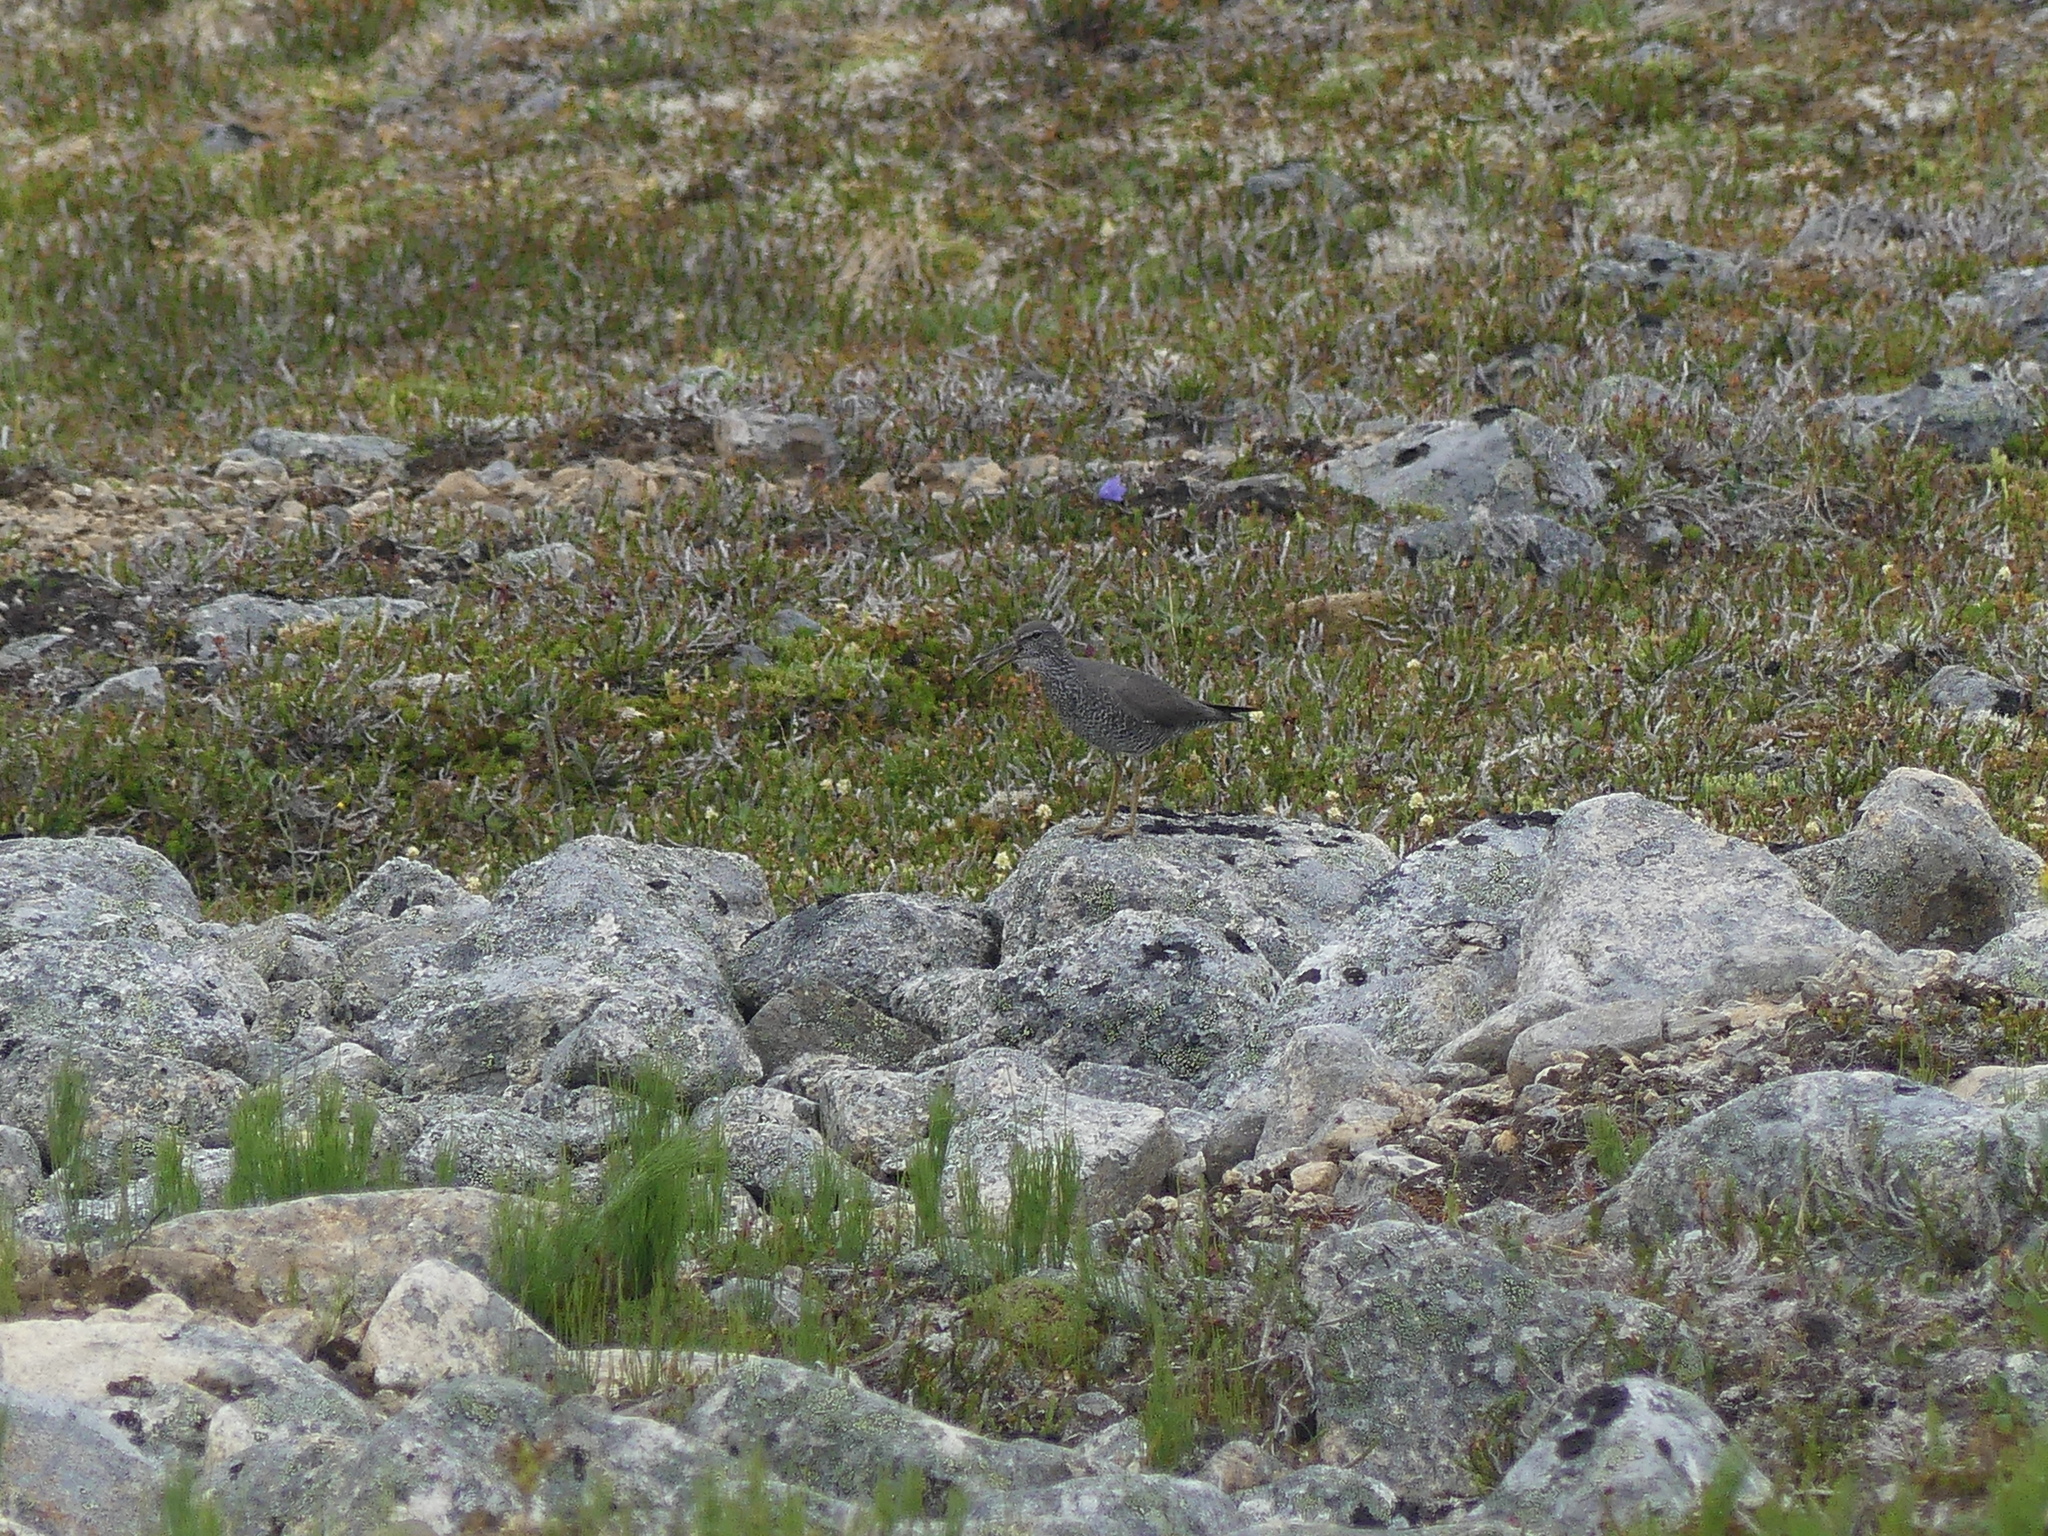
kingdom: Animalia
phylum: Chordata
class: Aves
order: Charadriiformes
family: Scolopacidae
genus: Tringa
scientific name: Tringa incana
